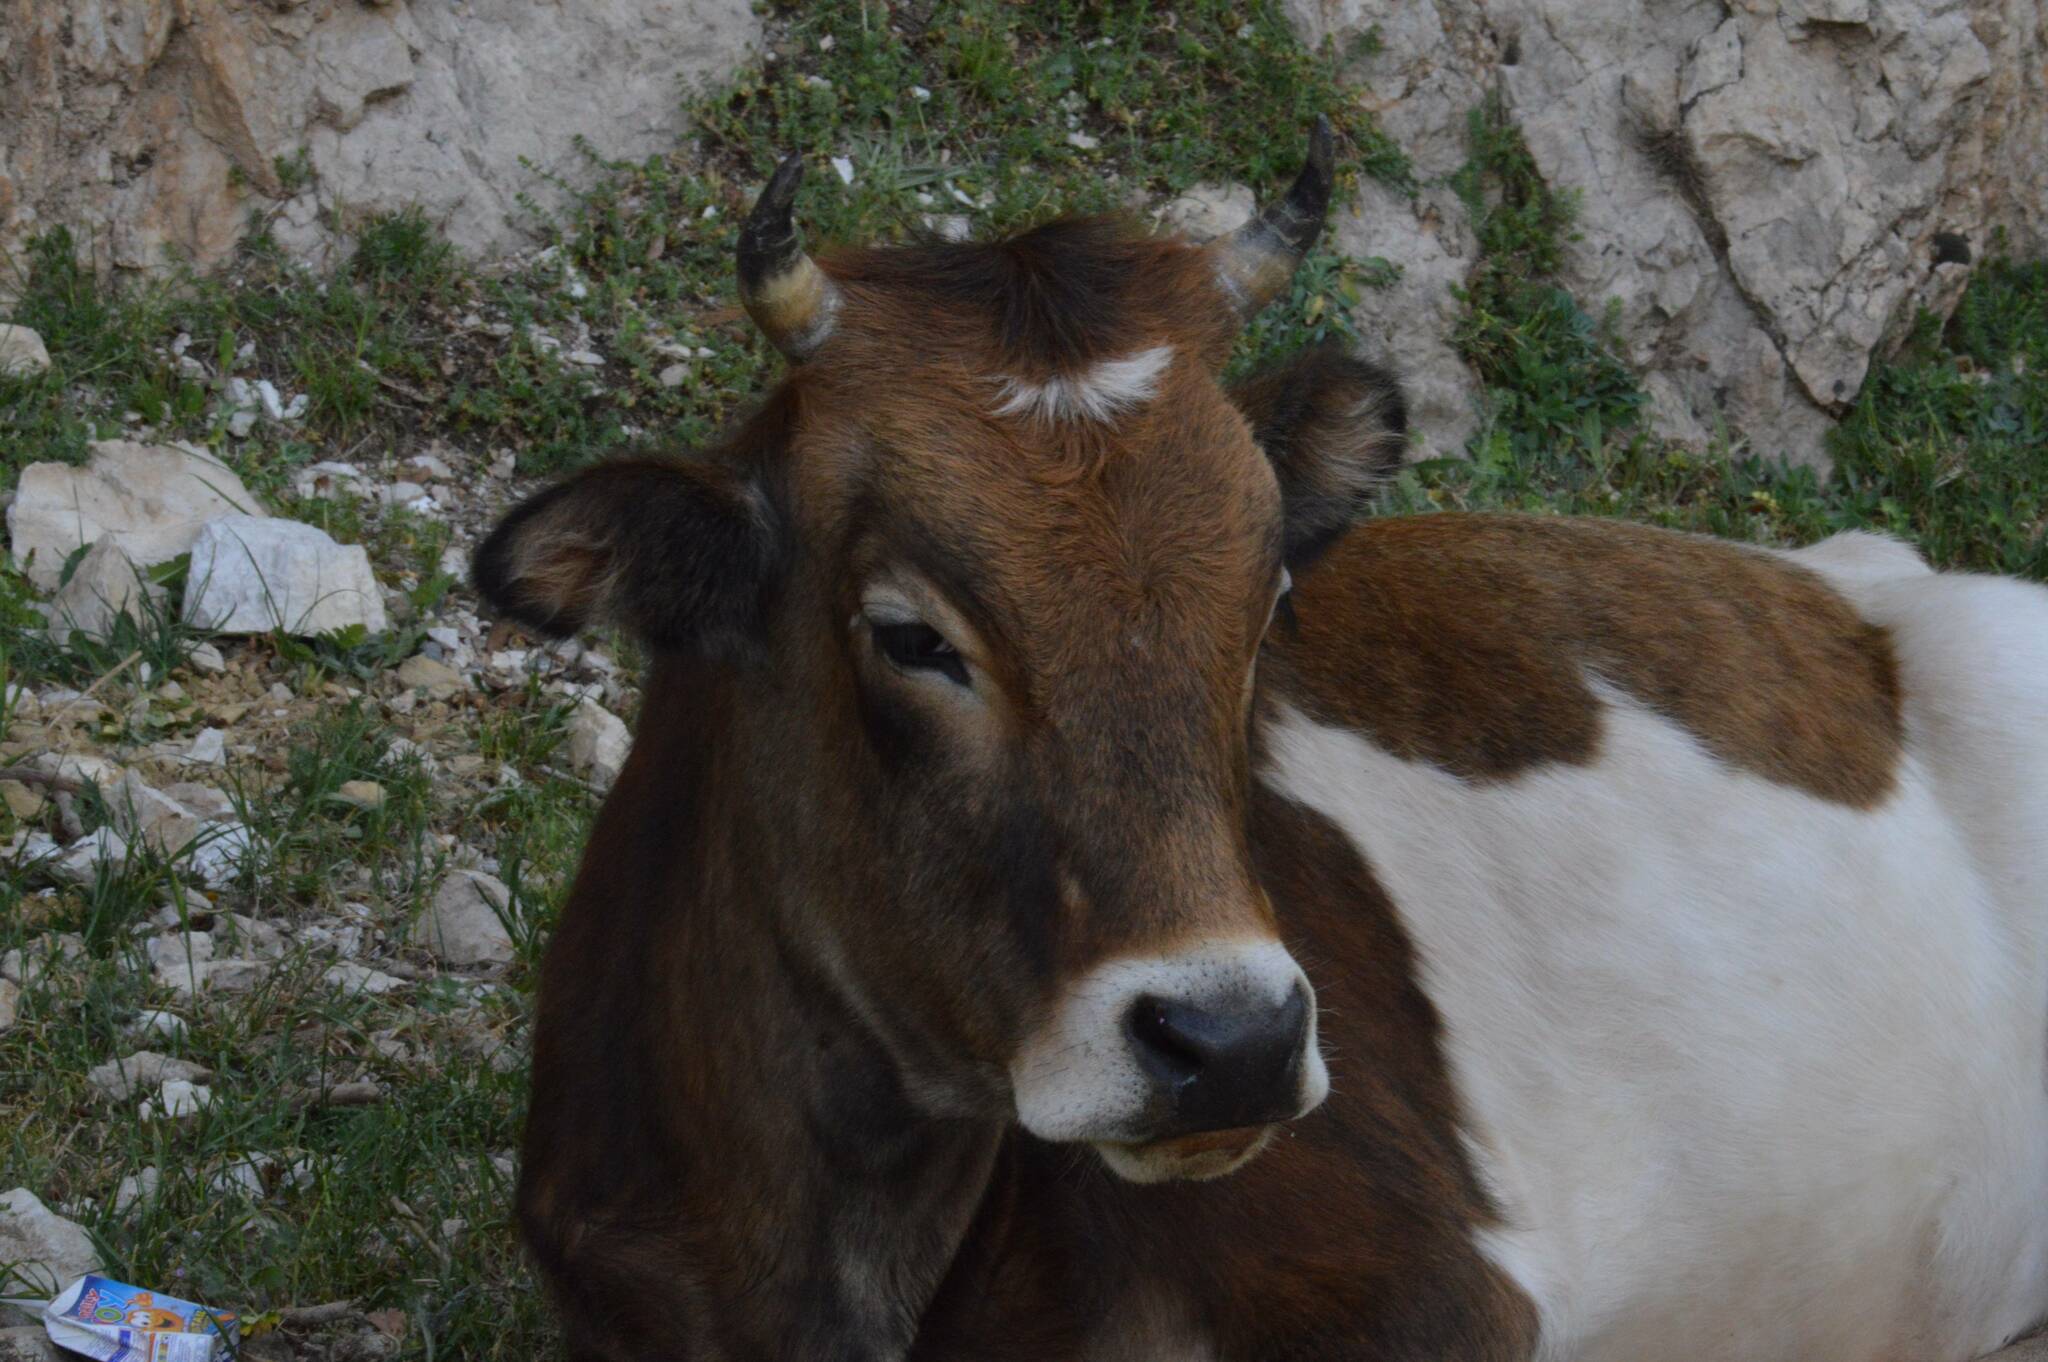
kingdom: Animalia
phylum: Chordata
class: Mammalia
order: Artiodactyla
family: Bovidae
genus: Bos
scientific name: Bos taurus
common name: Domesticated cattle
